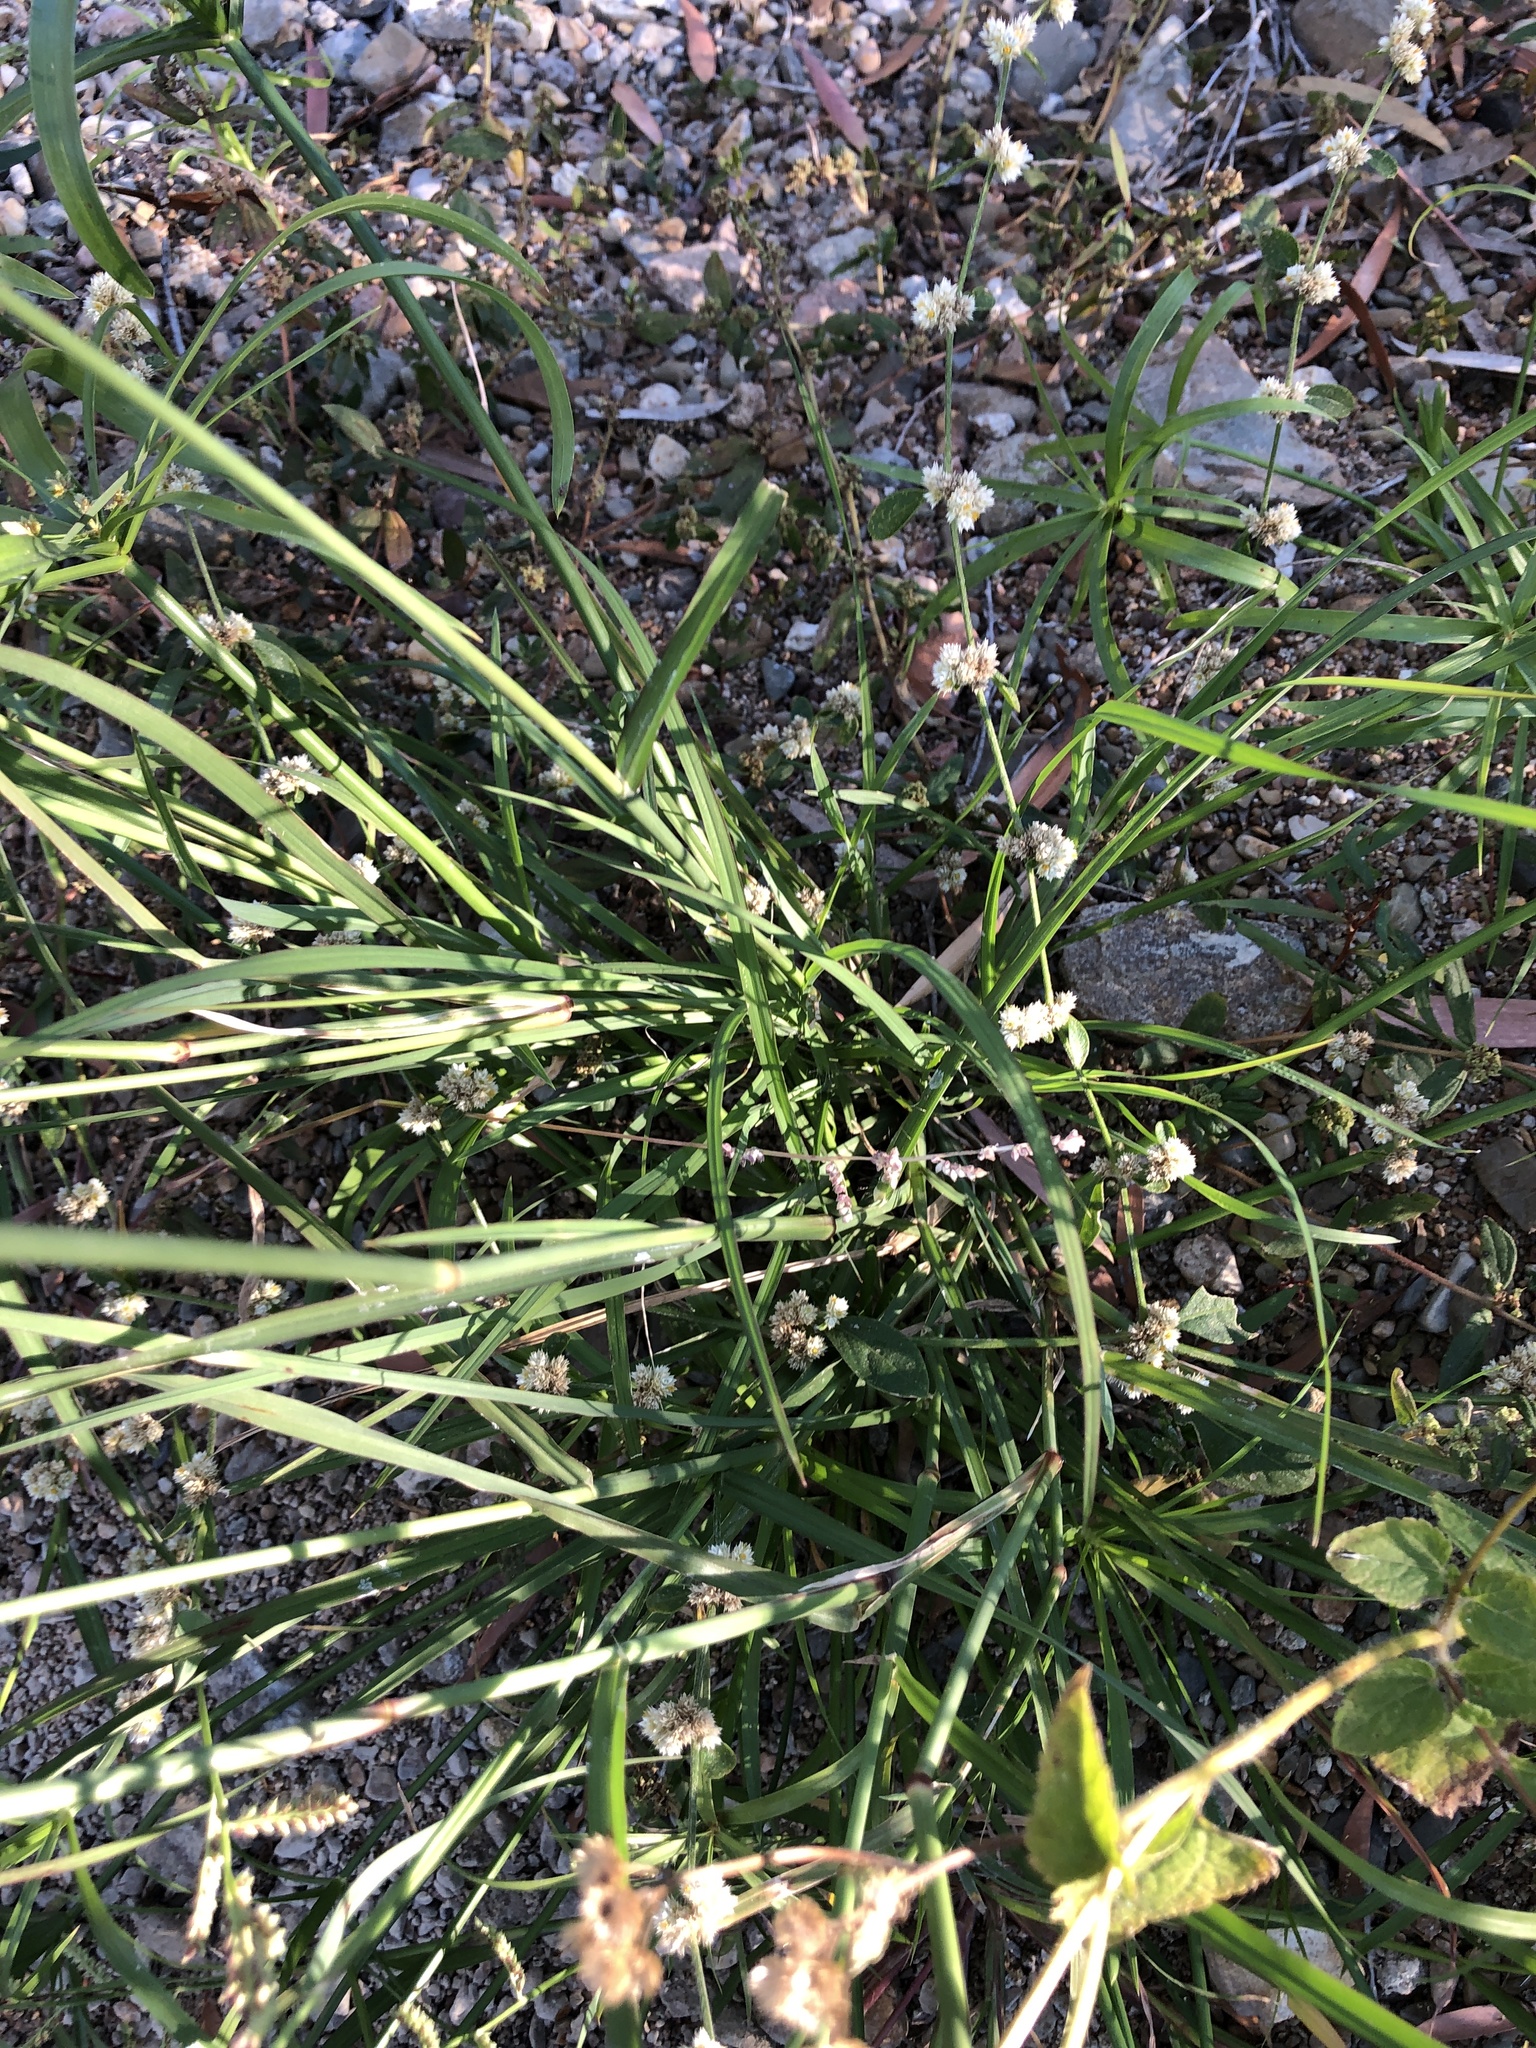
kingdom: Plantae
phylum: Tracheophyta
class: Liliopsida
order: Poales
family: Poaceae
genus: Chloris
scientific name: Chloris barbata
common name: Swollen fingergrass
